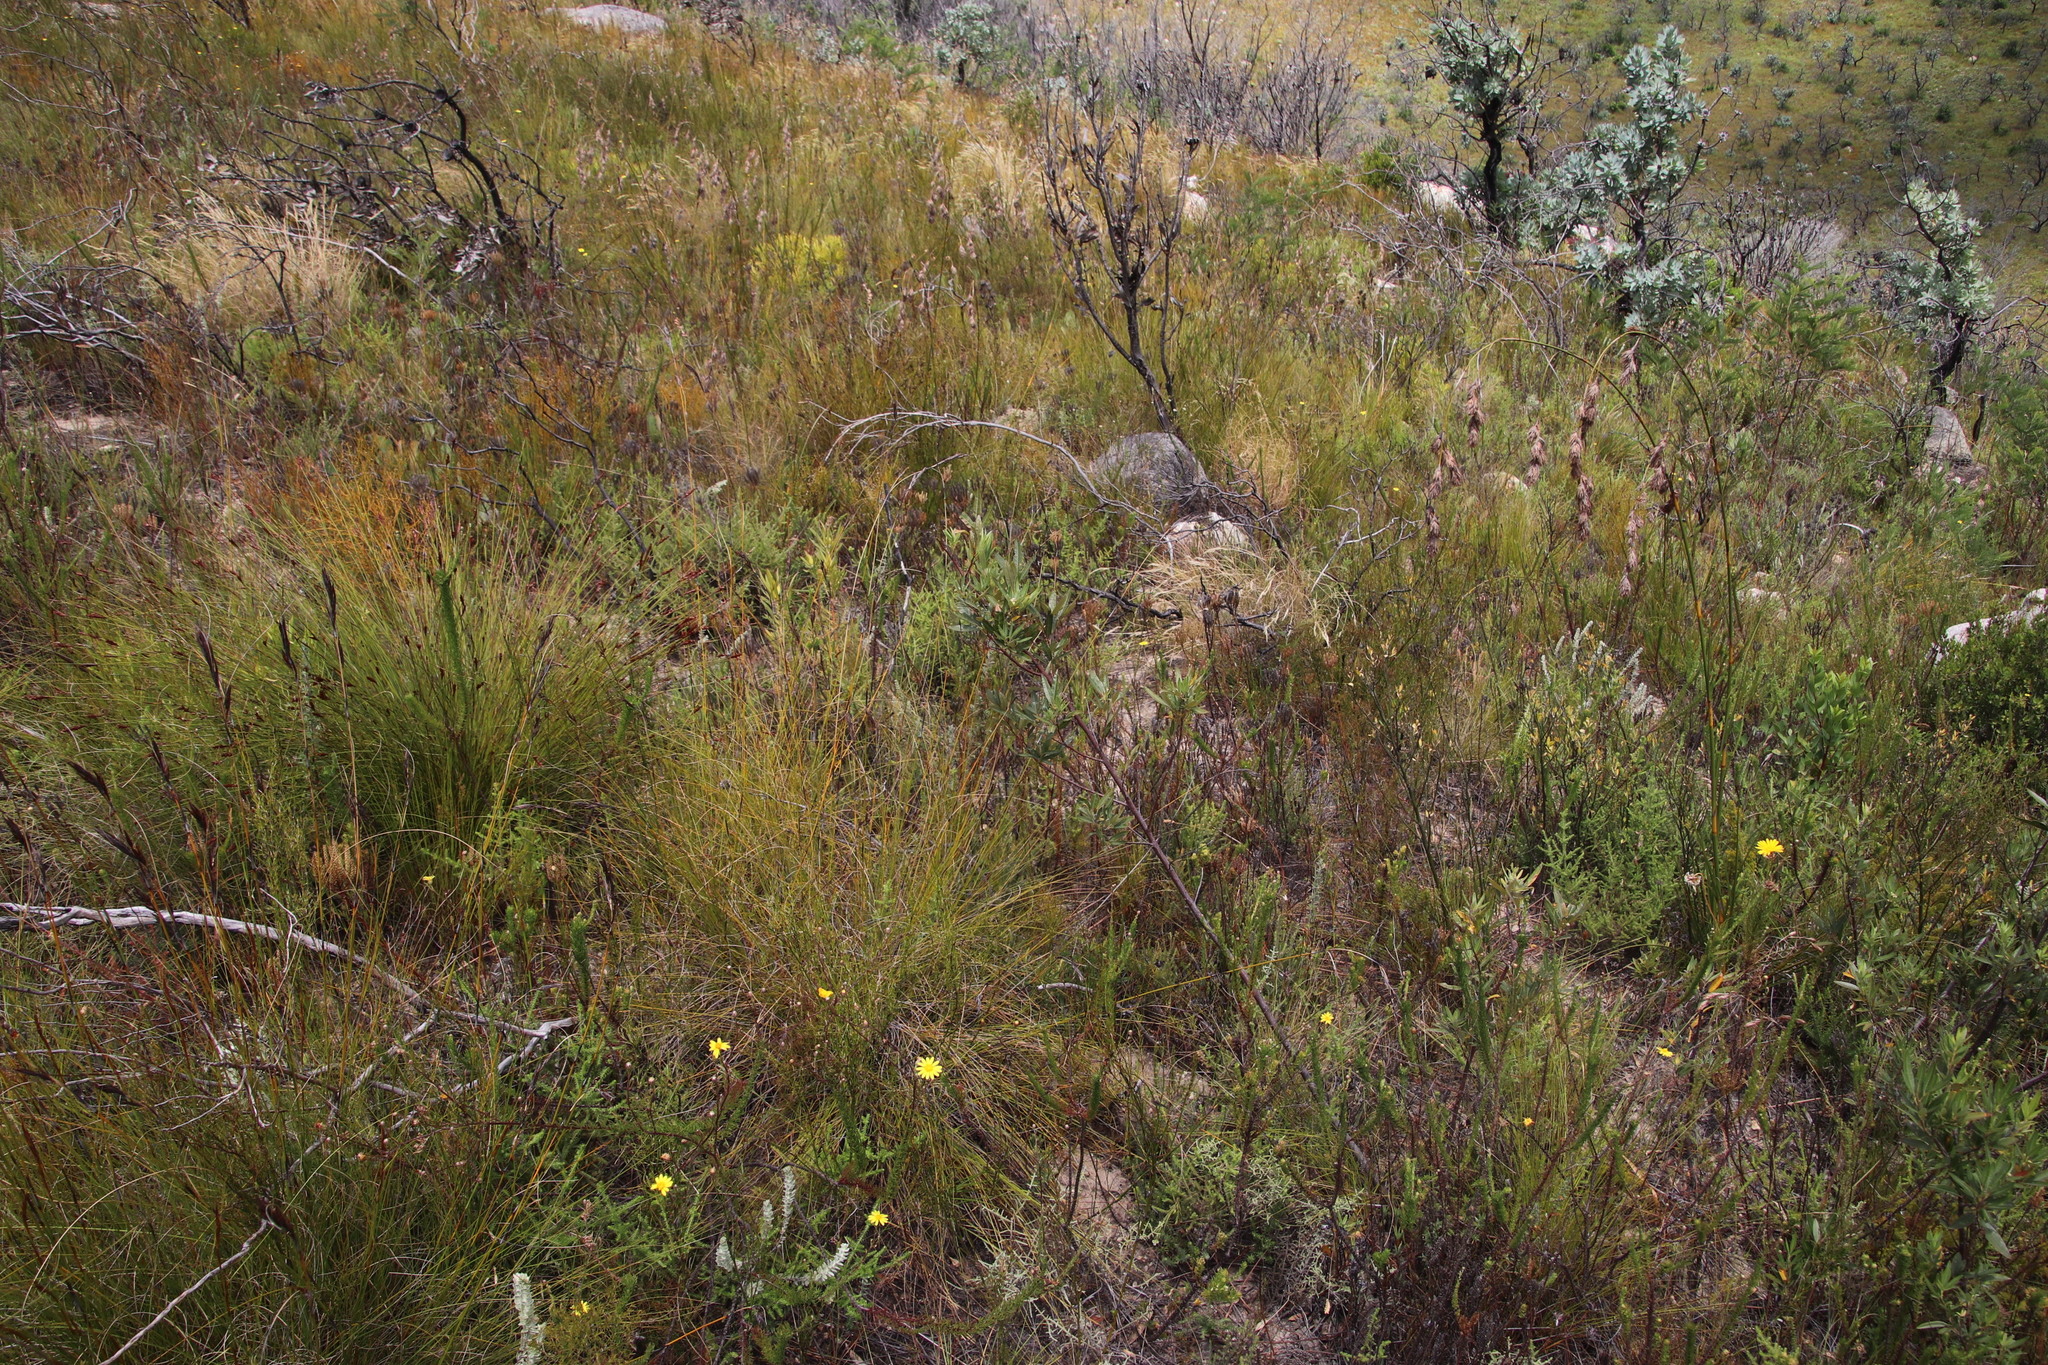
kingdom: Plantae
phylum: Tracheophyta
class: Magnoliopsida
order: Sapindales
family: Anacardiaceae
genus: Searsia
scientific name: Searsia angustifolia
